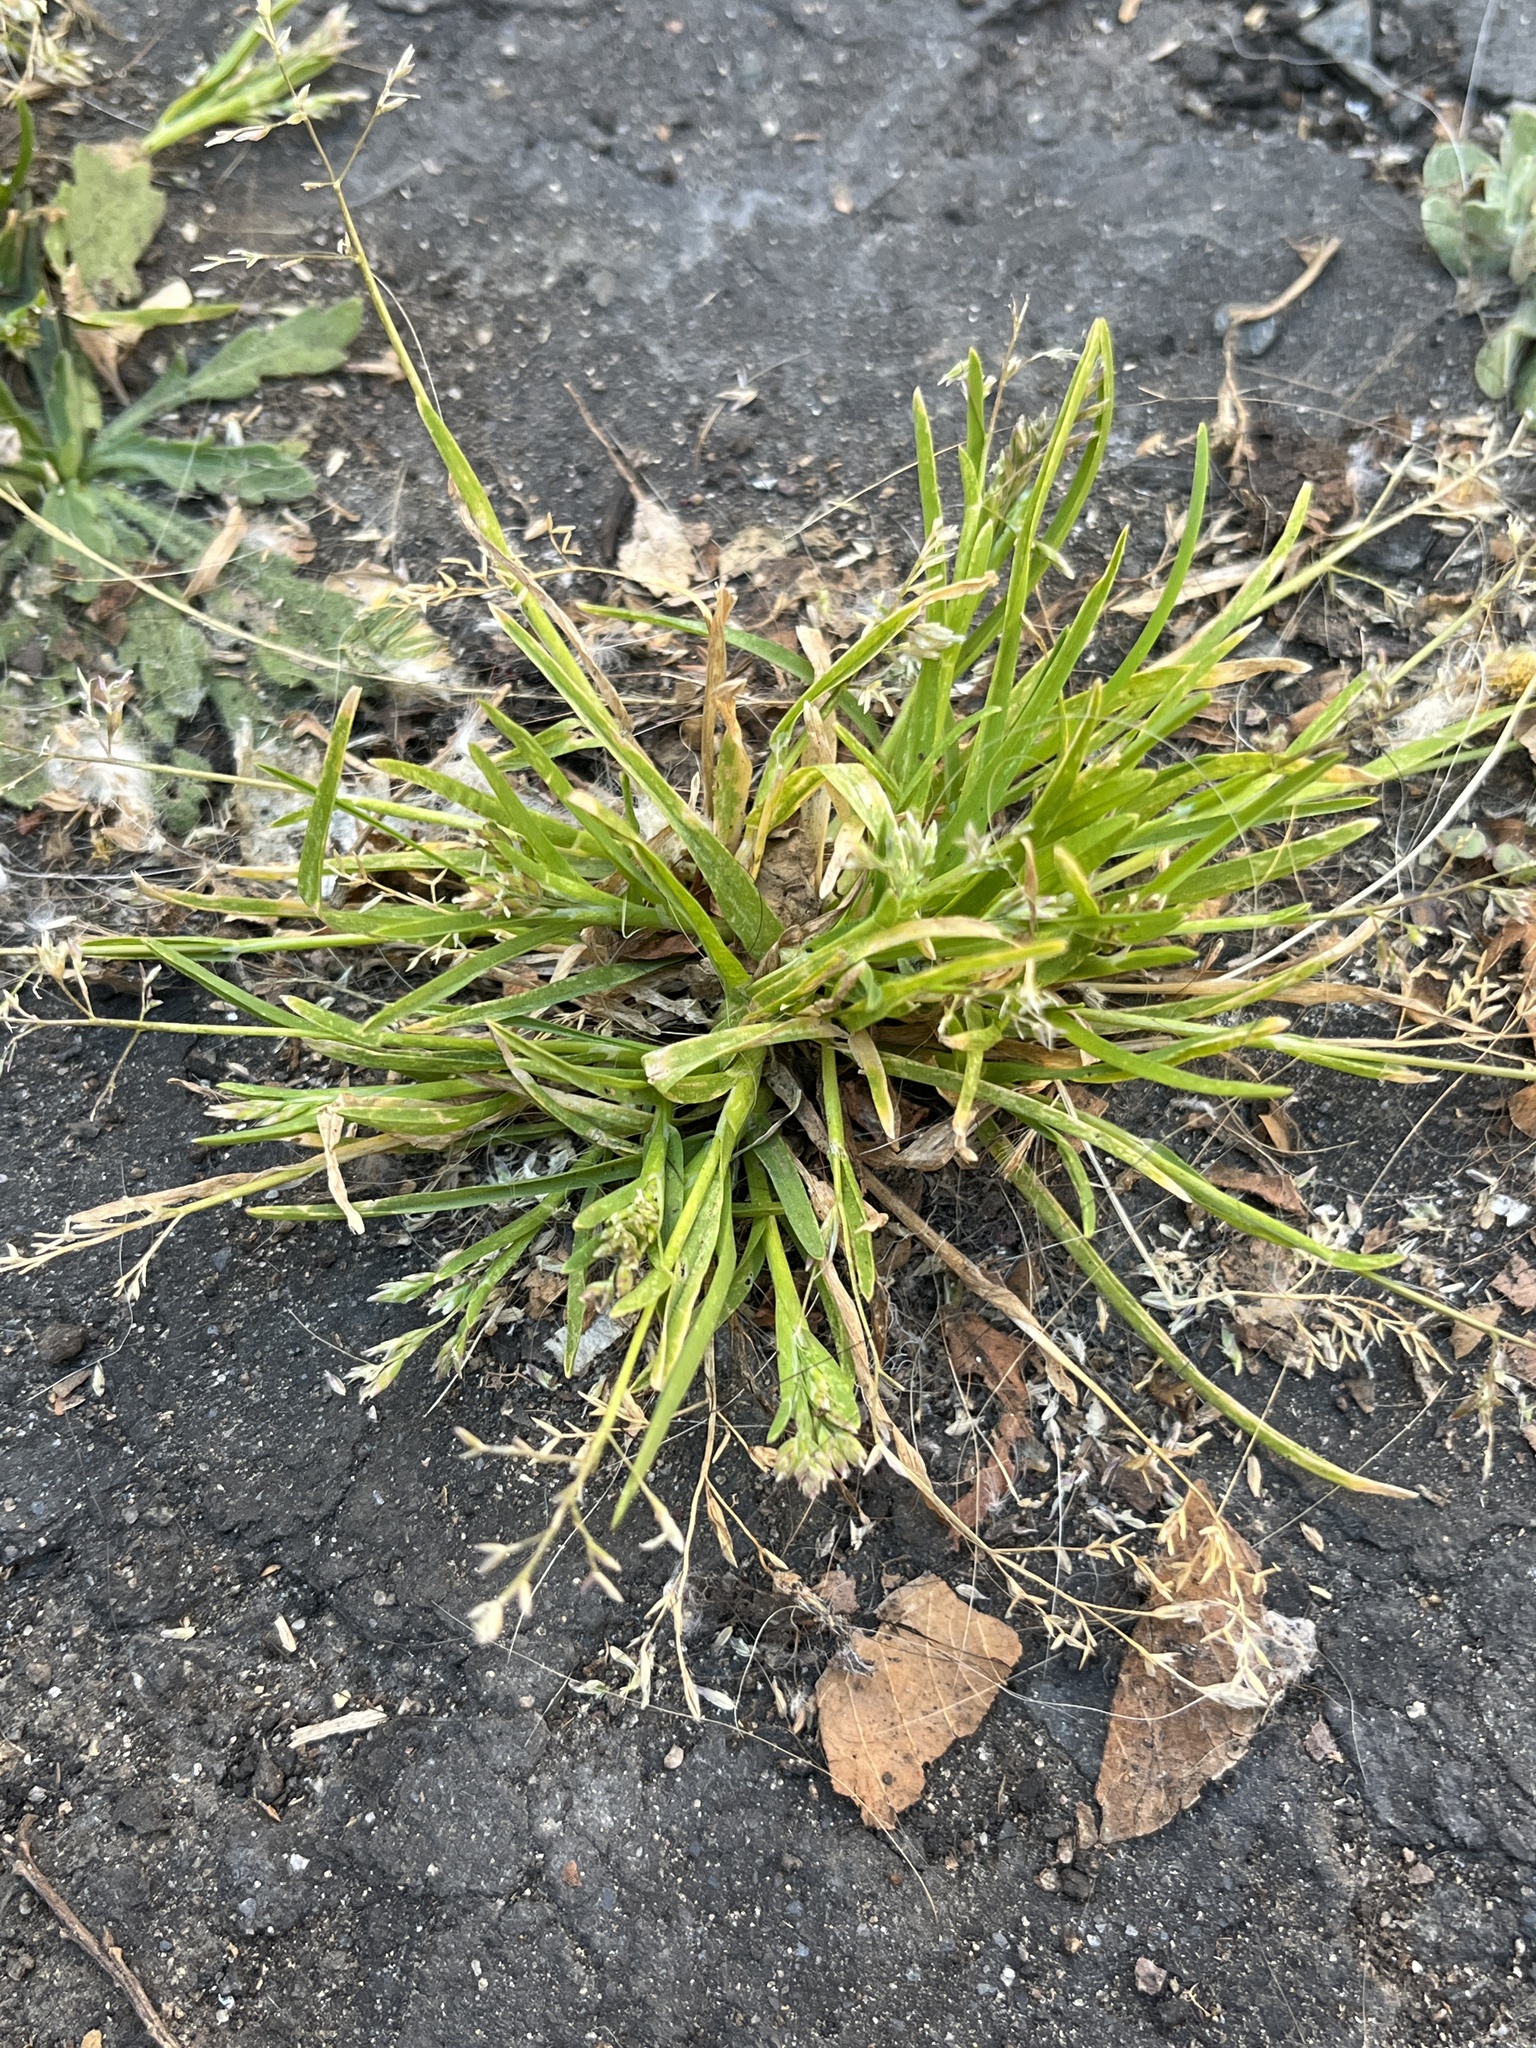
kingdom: Plantae
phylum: Tracheophyta
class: Liliopsida
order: Poales
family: Poaceae
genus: Poa
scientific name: Poa annua
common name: Annual bluegrass
